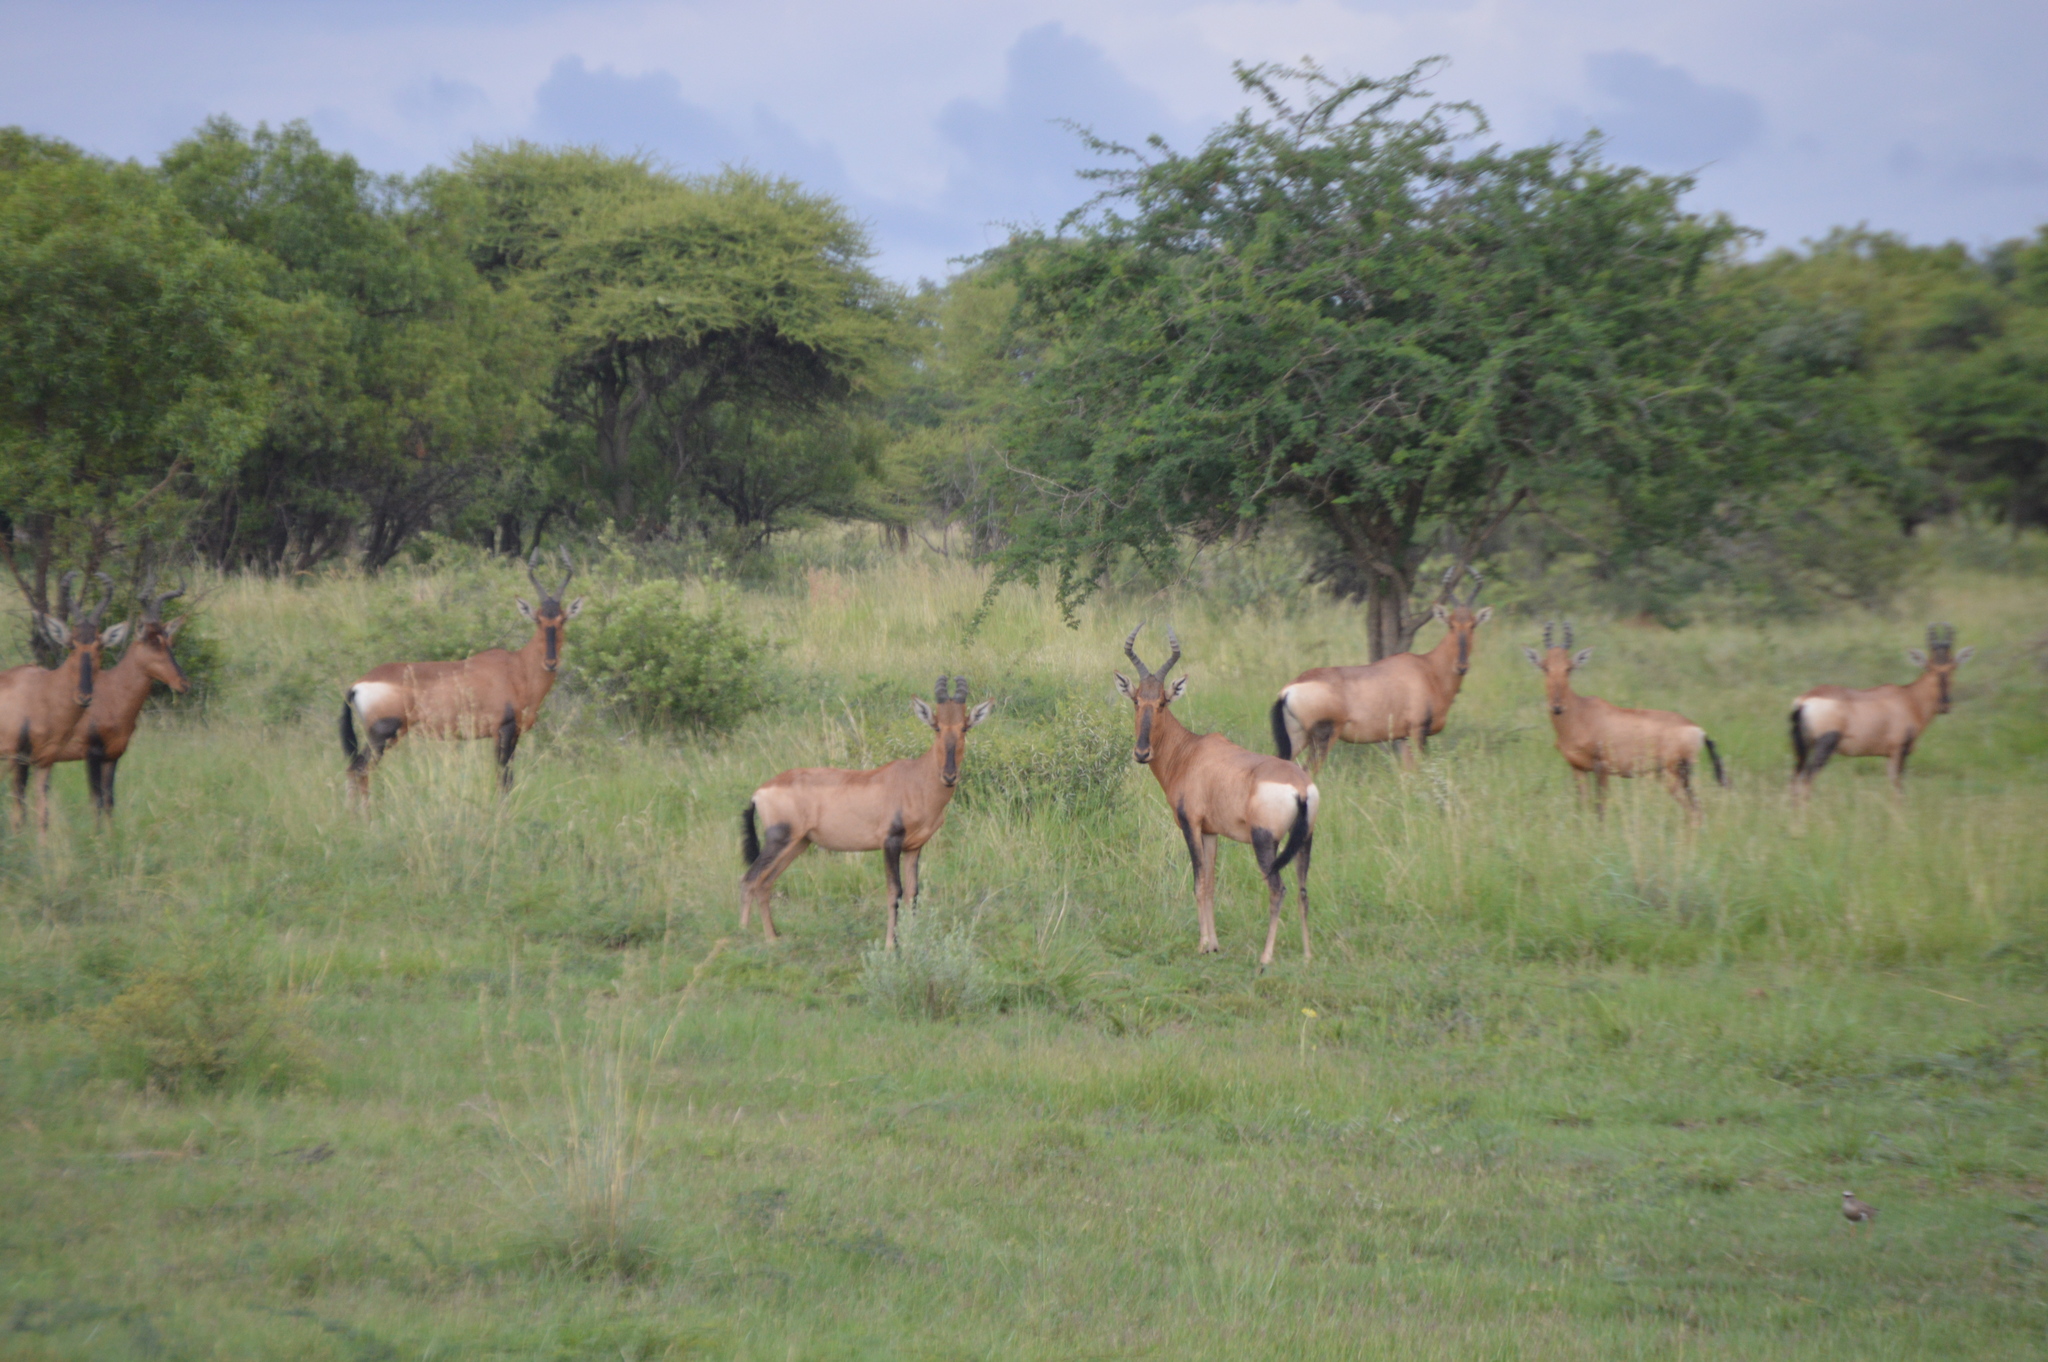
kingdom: Animalia
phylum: Chordata
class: Mammalia
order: Artiodactyla
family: Bovidae
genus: Alcelaphus
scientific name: Alcelaphus caama
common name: Red hartebeest
